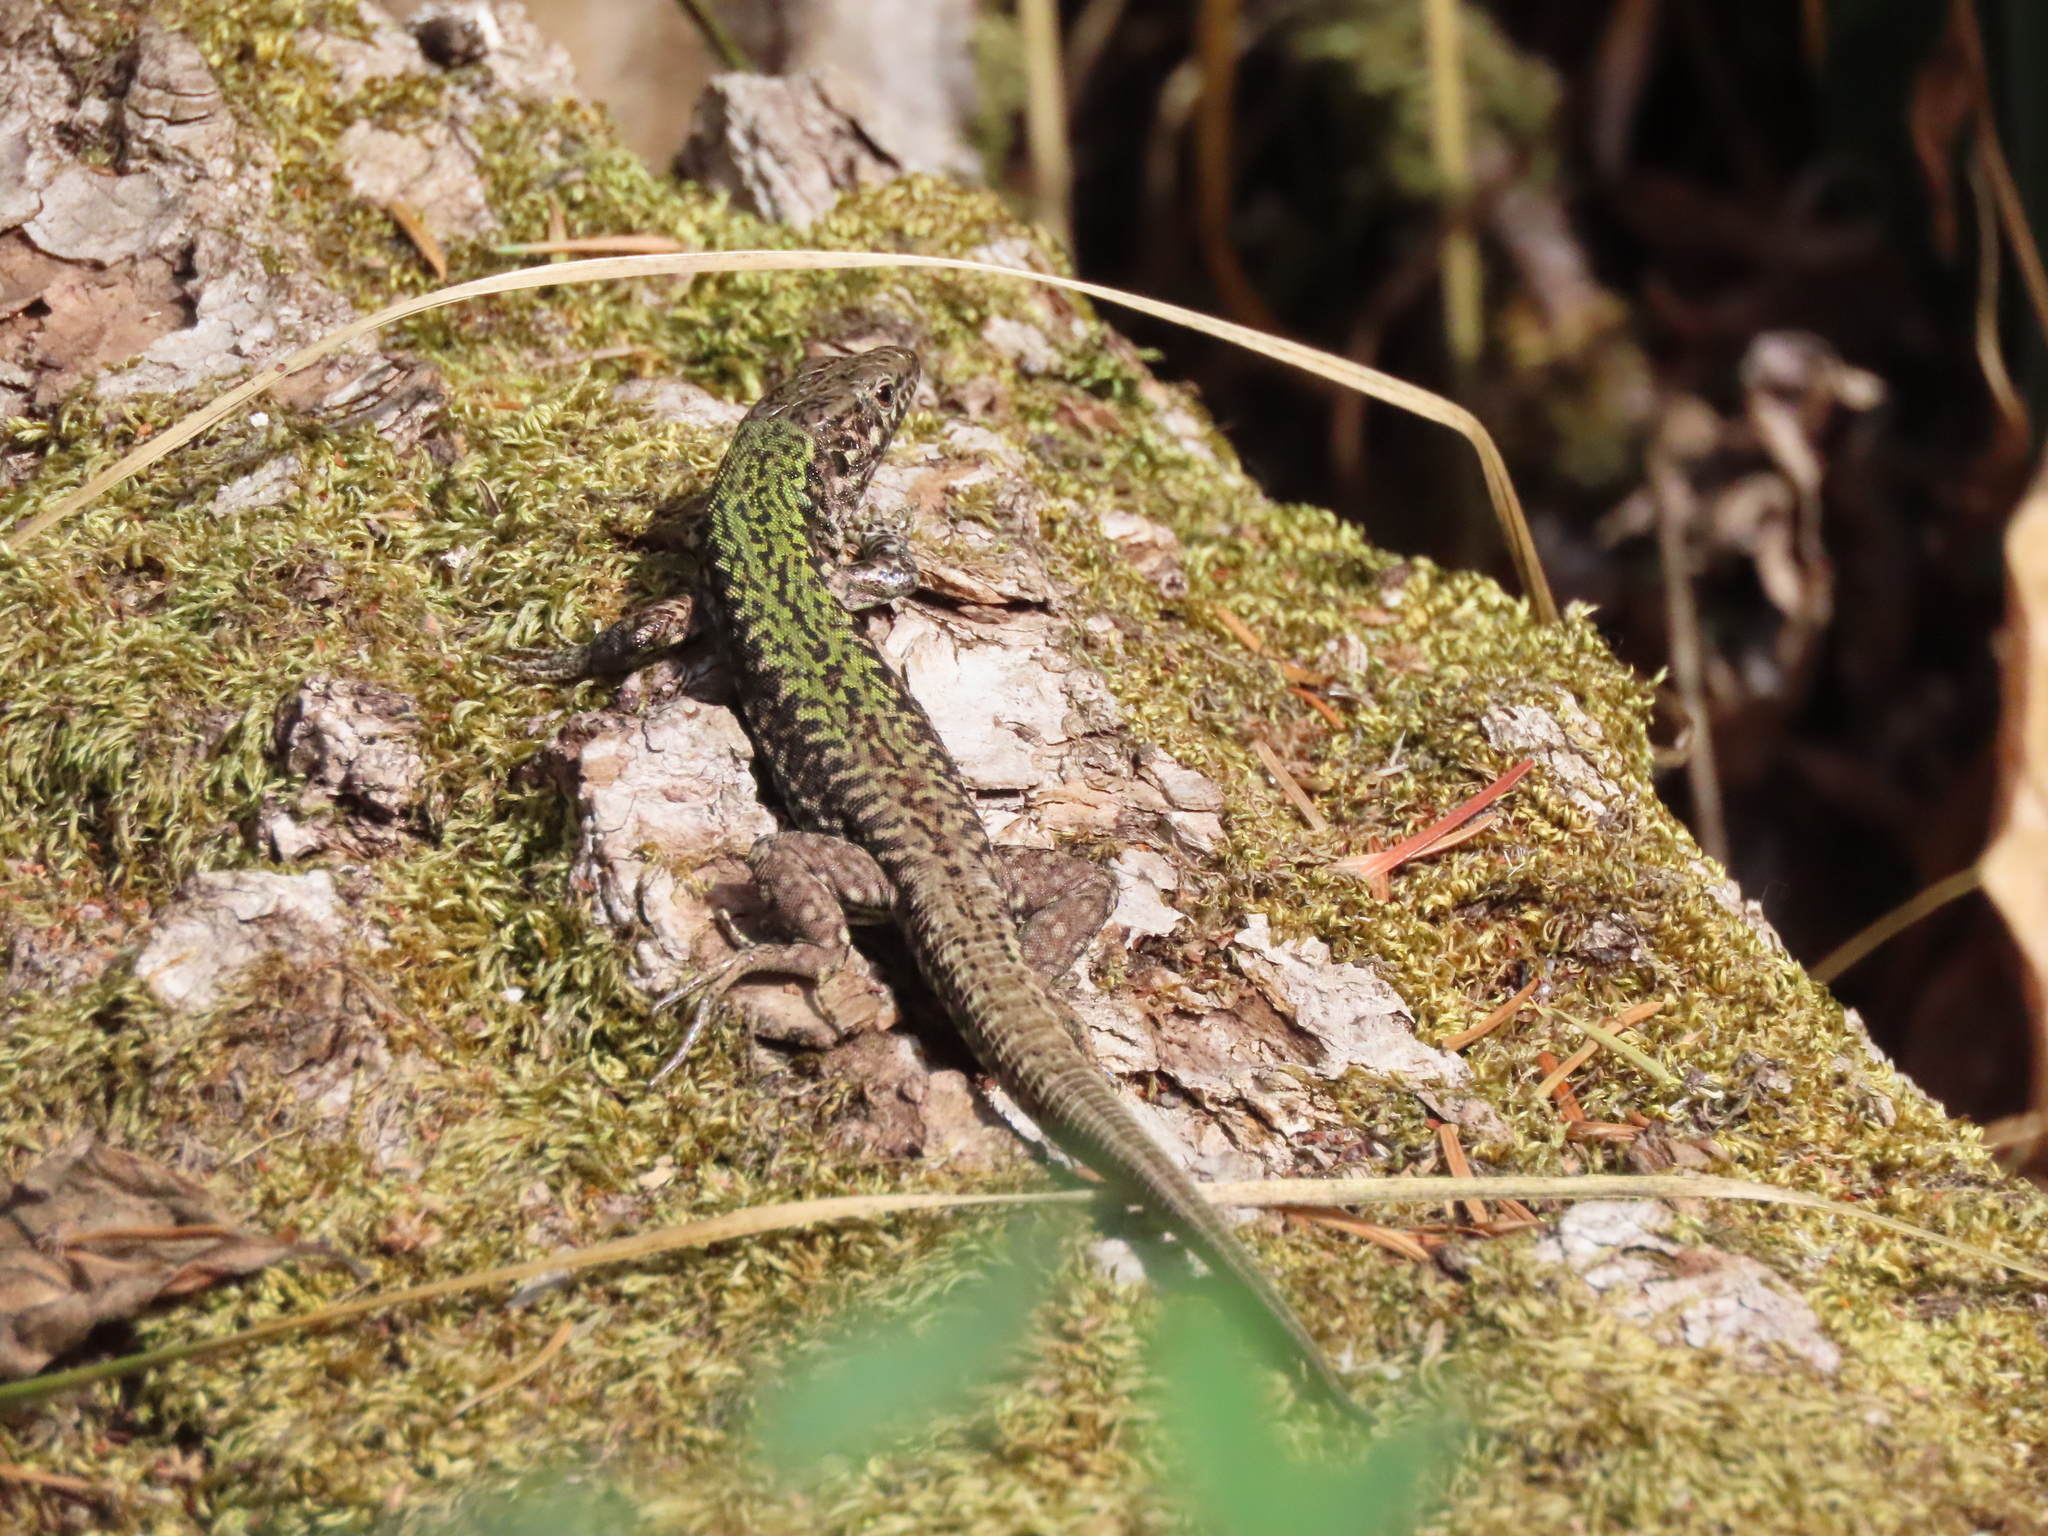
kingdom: Animalia
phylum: Chordata
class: Squamata
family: Lacertidae
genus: Podarcis
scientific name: Podarcis muralis
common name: Common wall lizard
